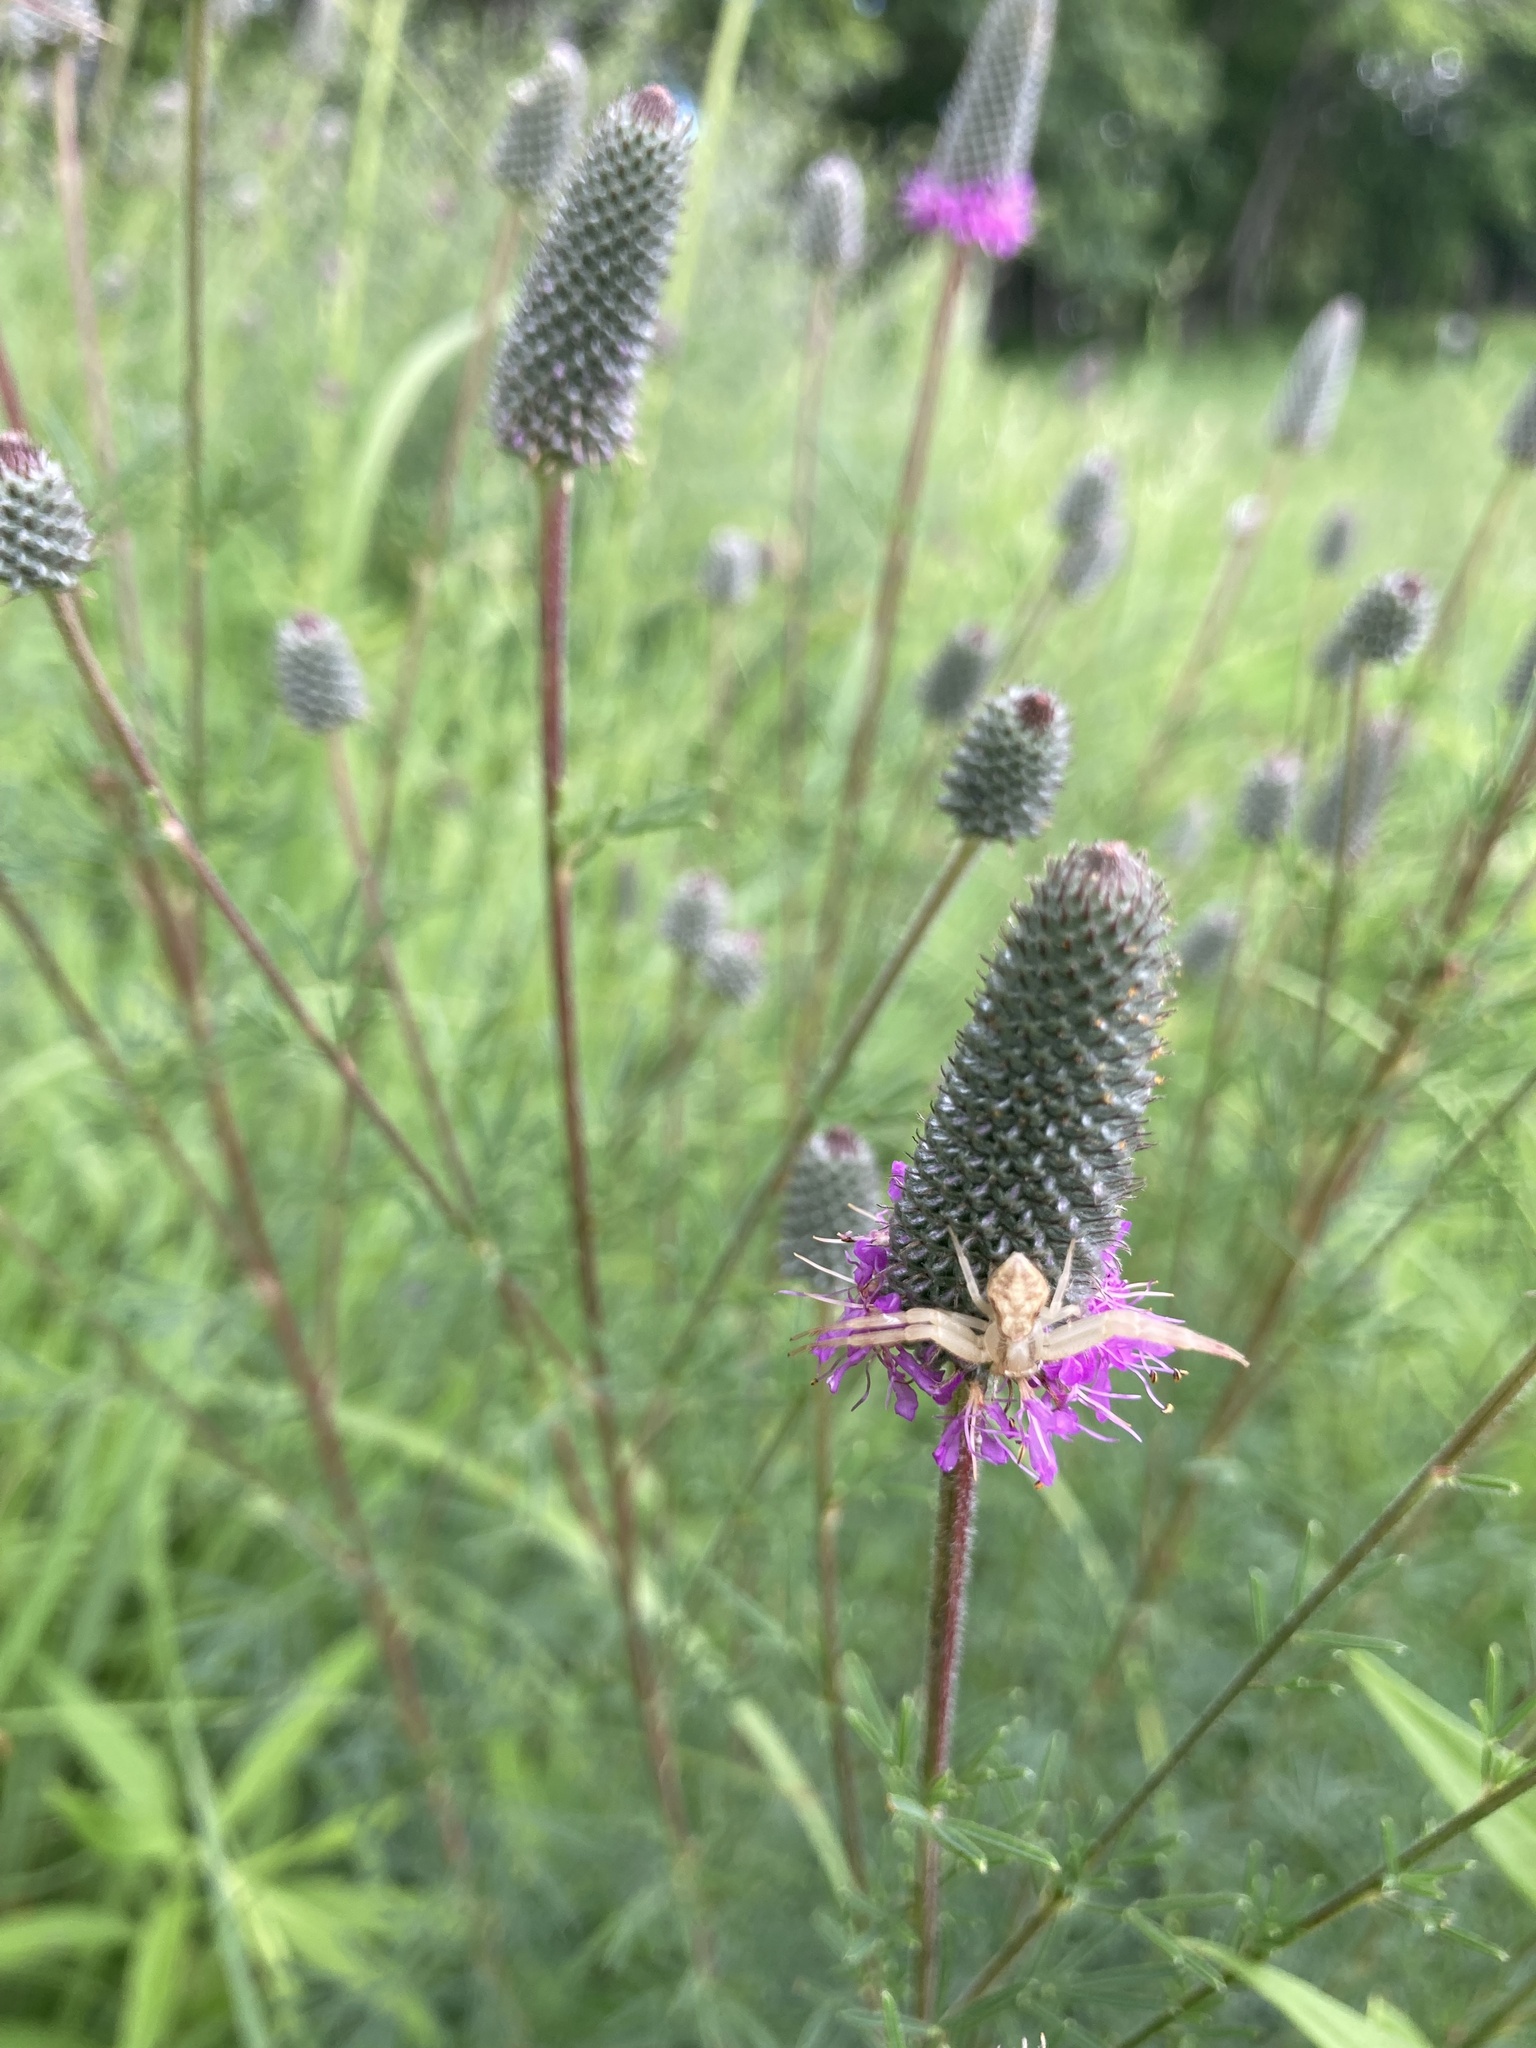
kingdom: Plantae
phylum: Tracheophyta
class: Magnoliopsida
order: Fabales
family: Fabaceae
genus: Dalea
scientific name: Dalea purpurea
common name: Purple prairie-clover
